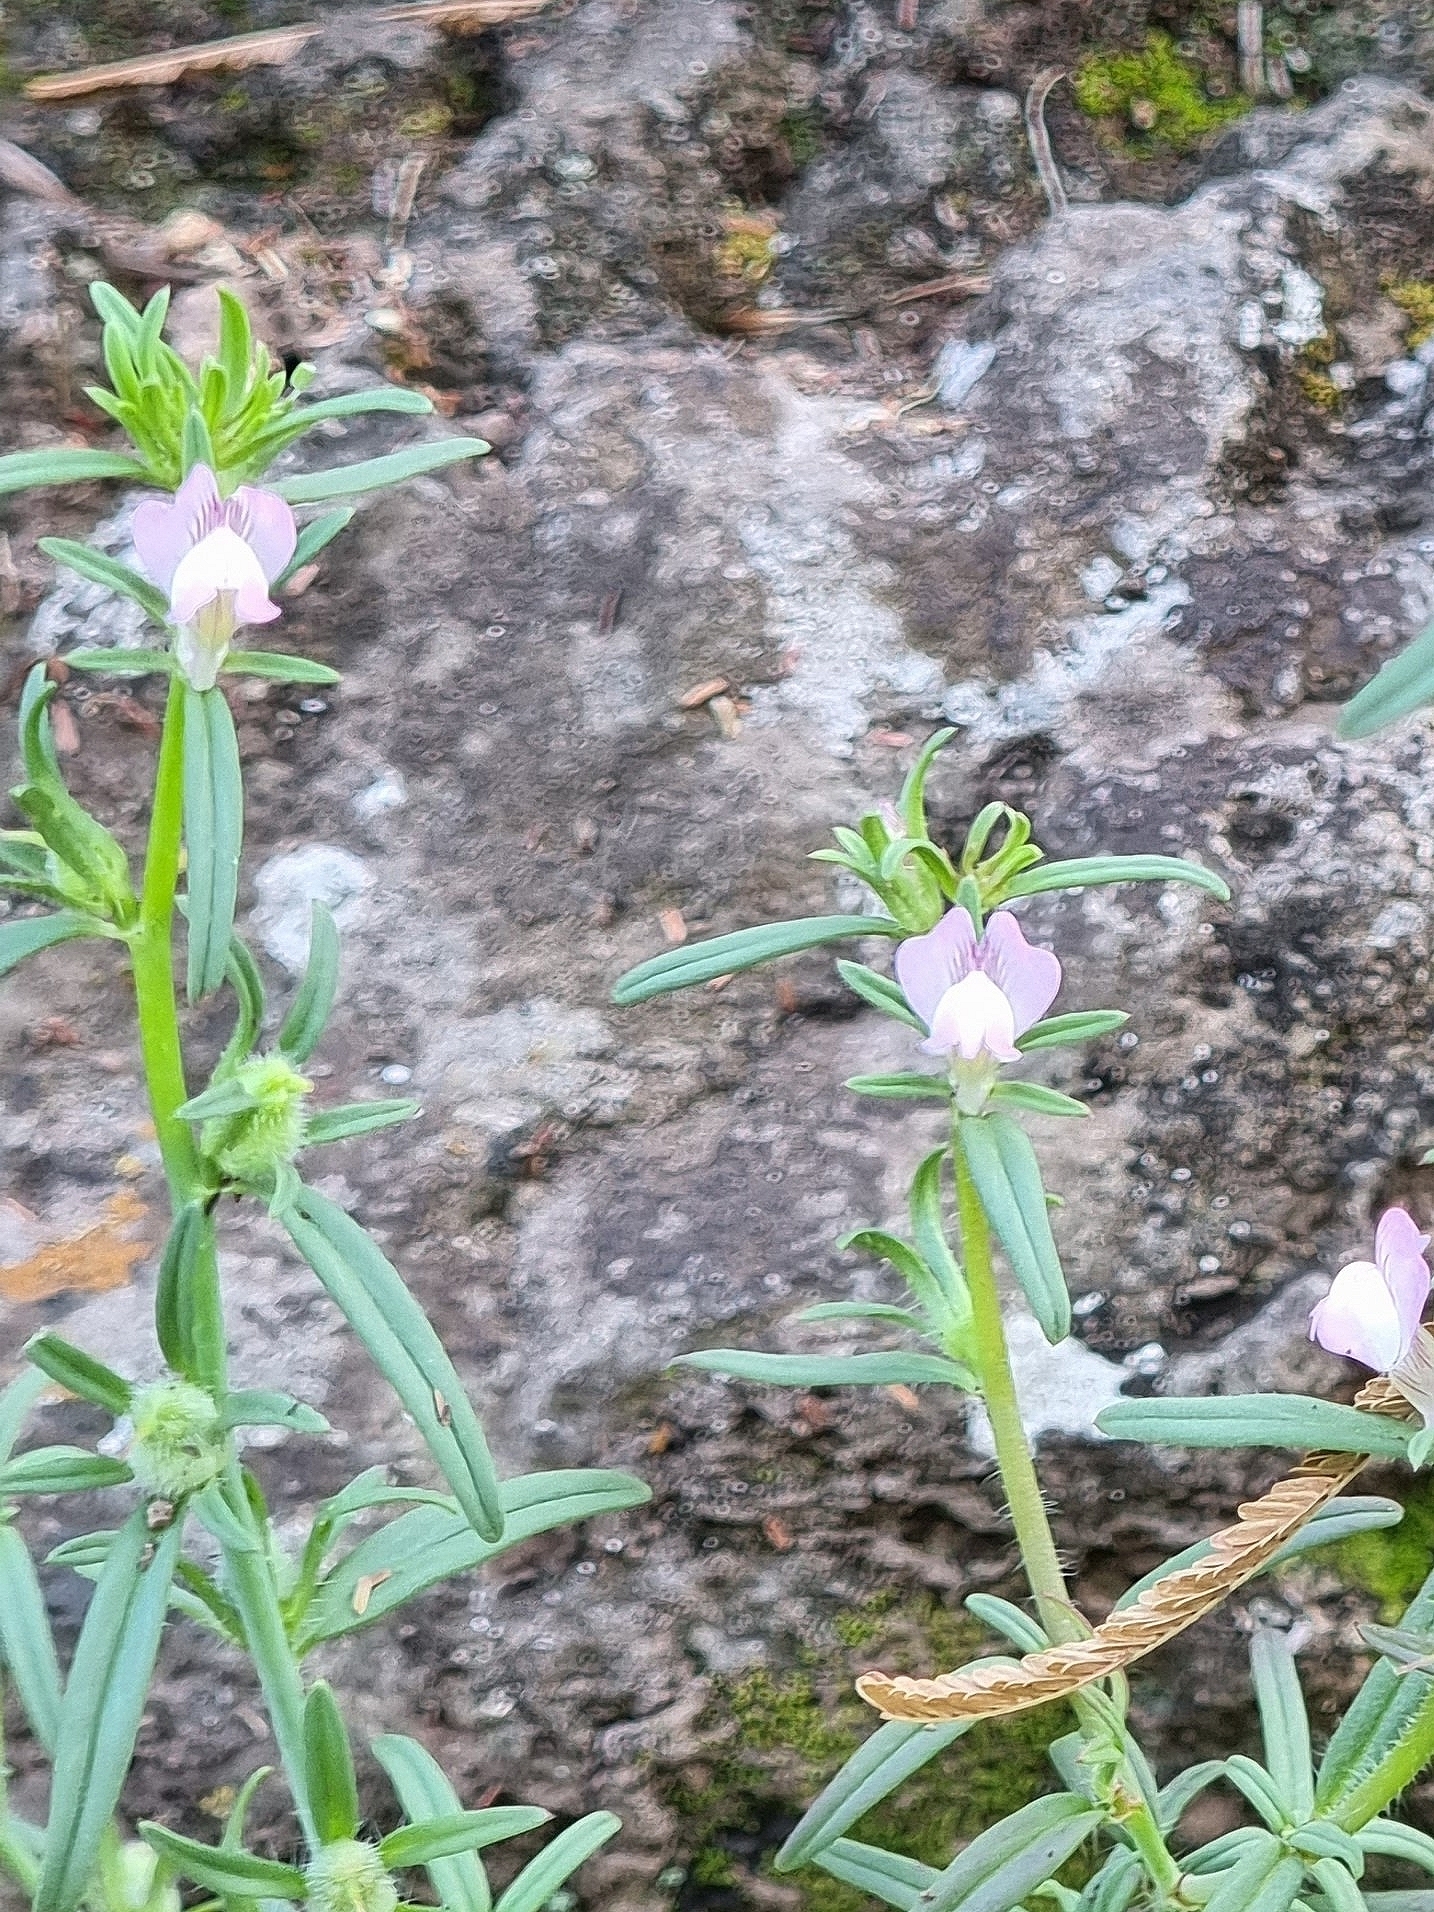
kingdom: Plantae
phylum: Tracheophyta
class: Magnoliopsida
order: Lamiales
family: Plantaginaceae
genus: Misopates
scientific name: Misopates orontium
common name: Weasel's-snout
